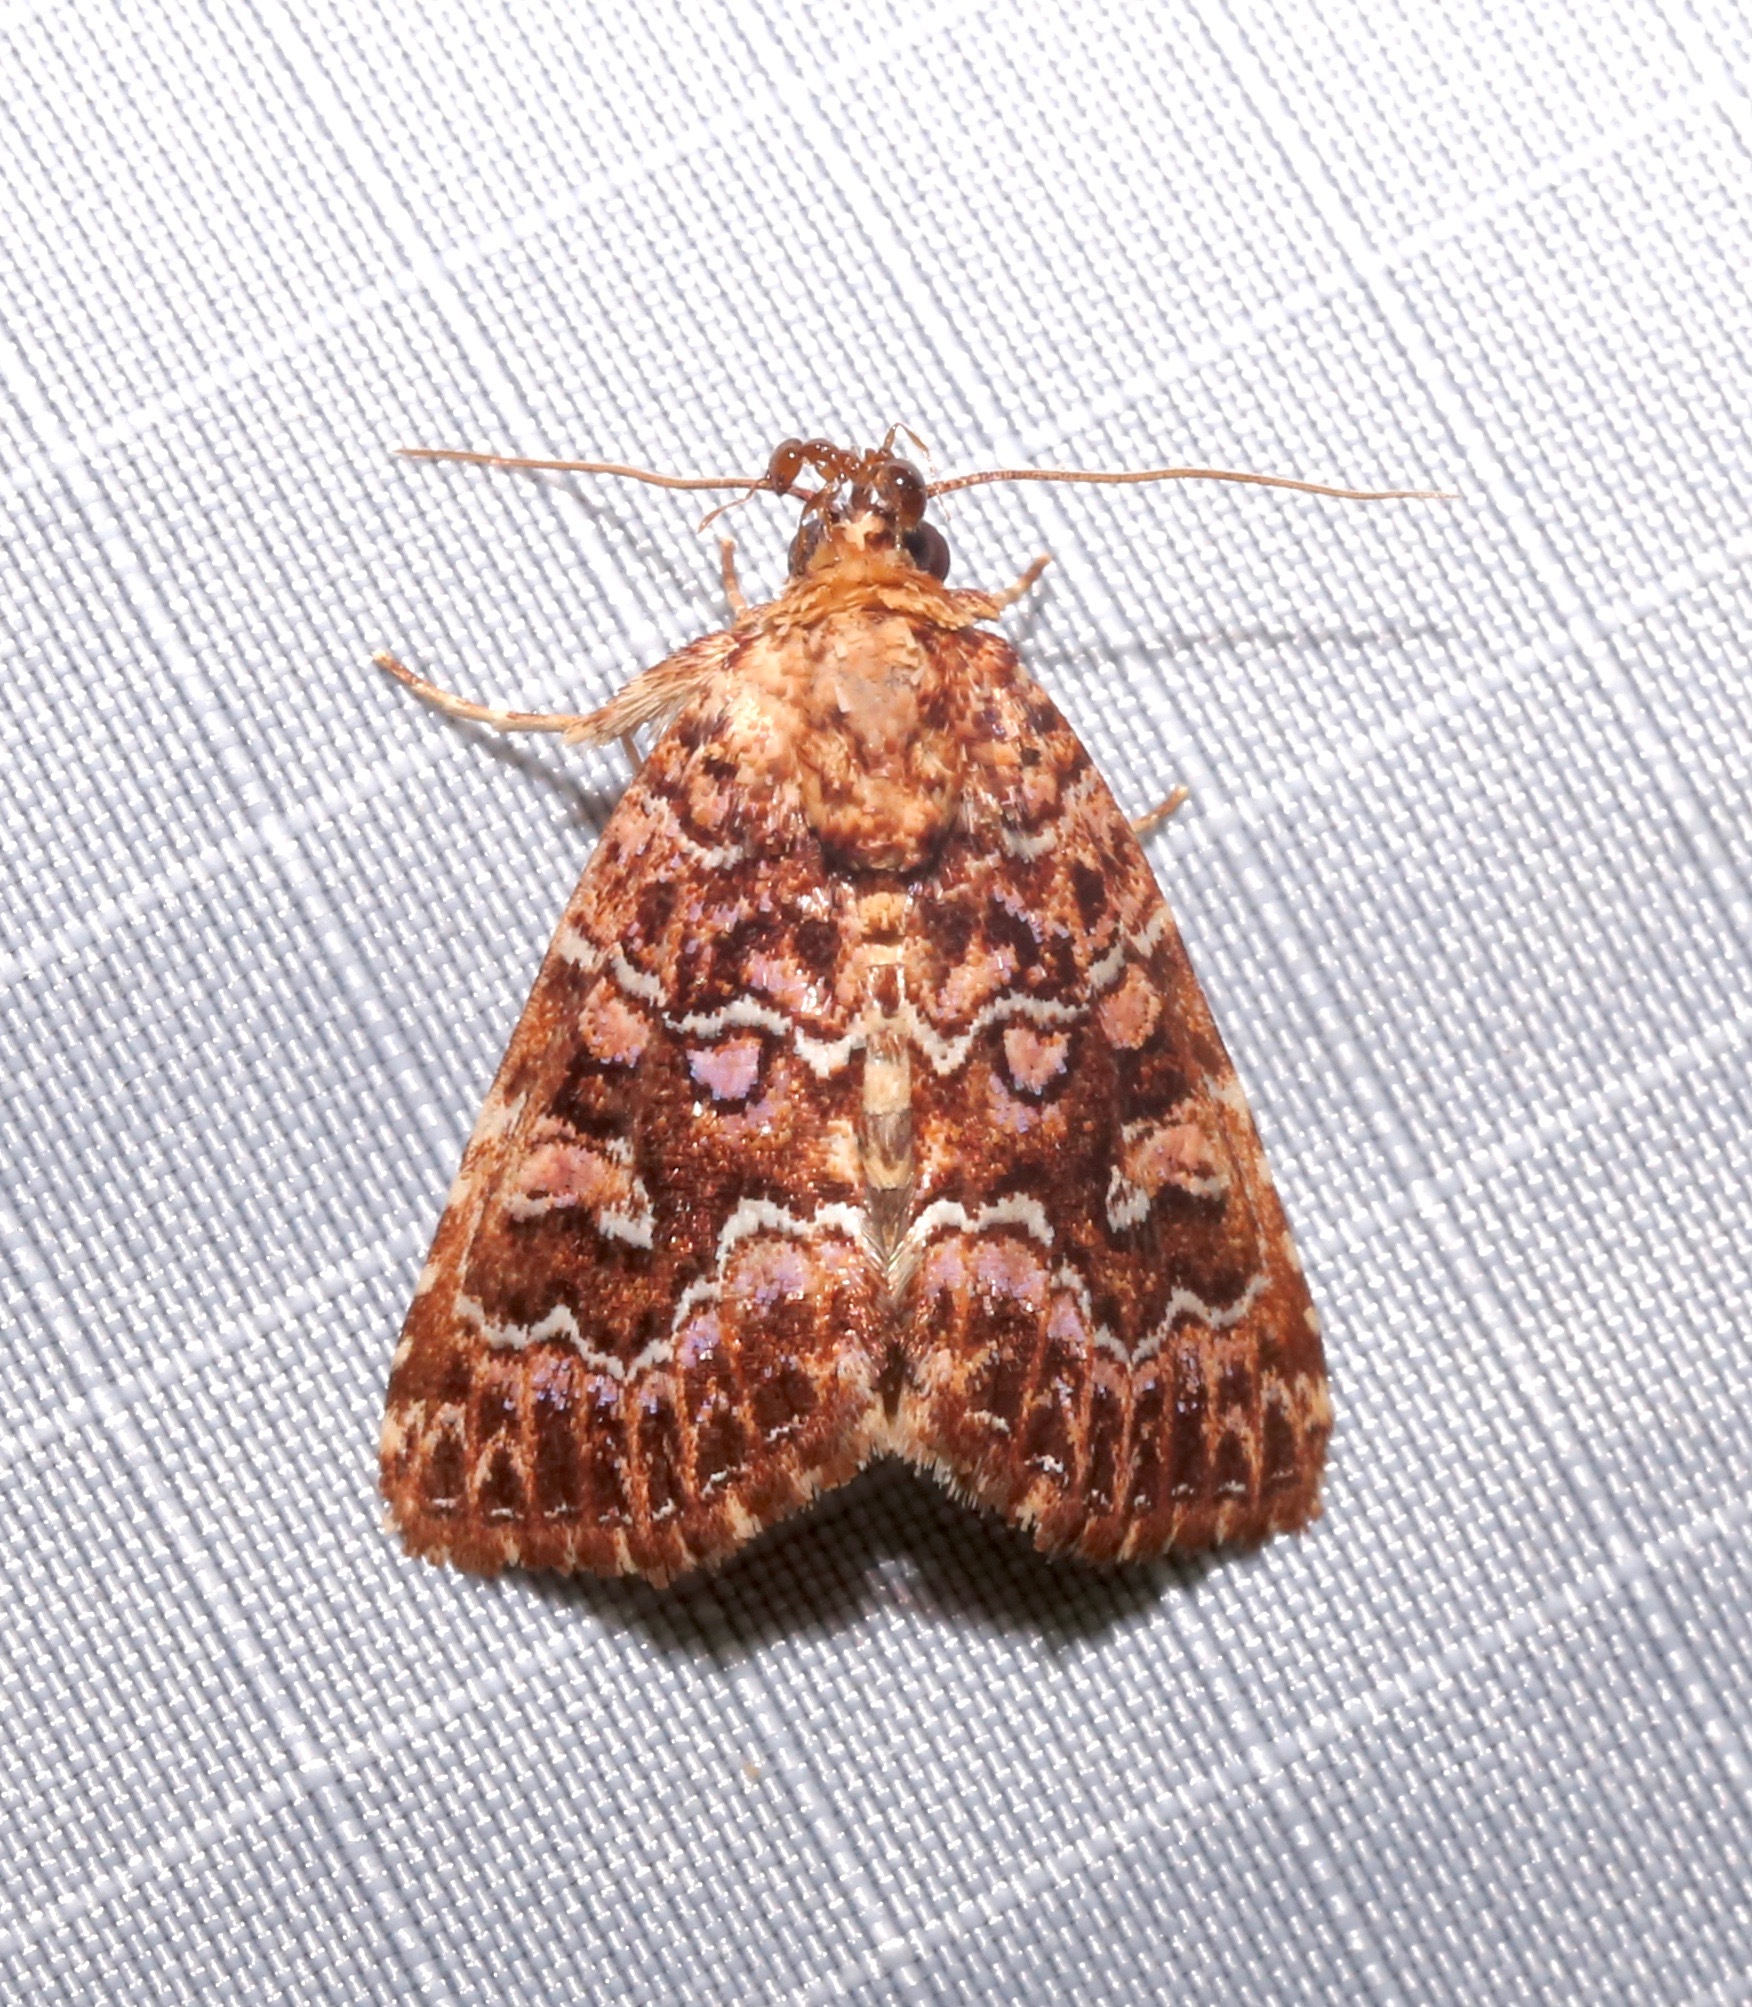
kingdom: Animalia
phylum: Arthropoda
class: Insecta
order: Lepidoptera
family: Noctuidae
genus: Callopistria
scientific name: Callopistria granitosa
